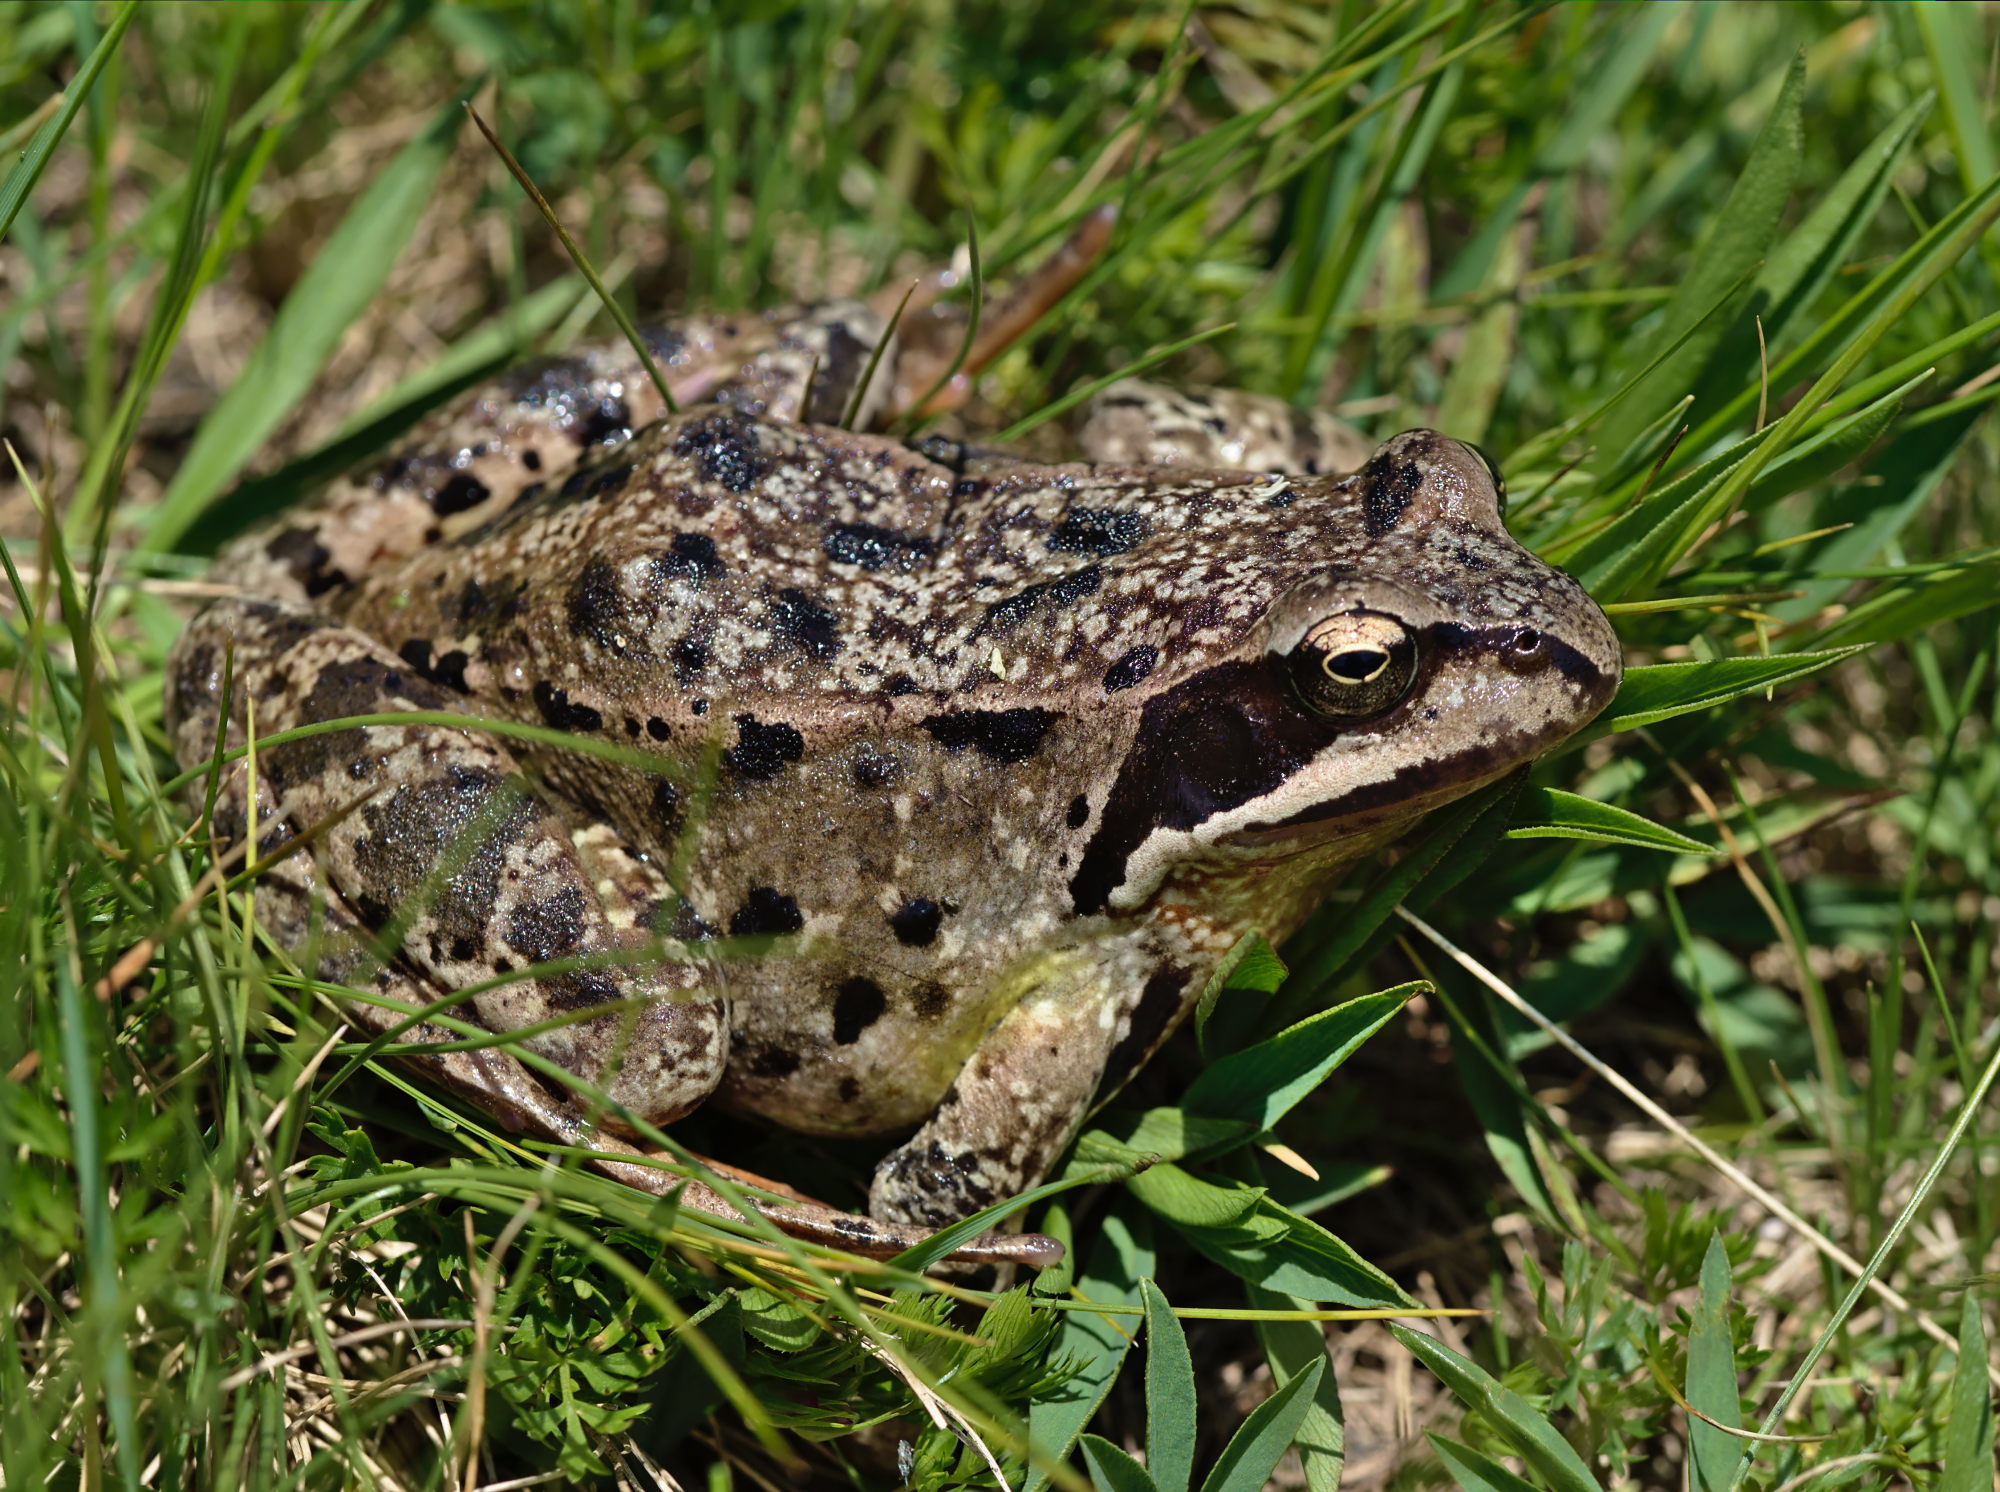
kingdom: Animalia
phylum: Chordata
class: Amphibia
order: Anura
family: Ranidae
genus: Rana
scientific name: Rana temporaria
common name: Common frog
